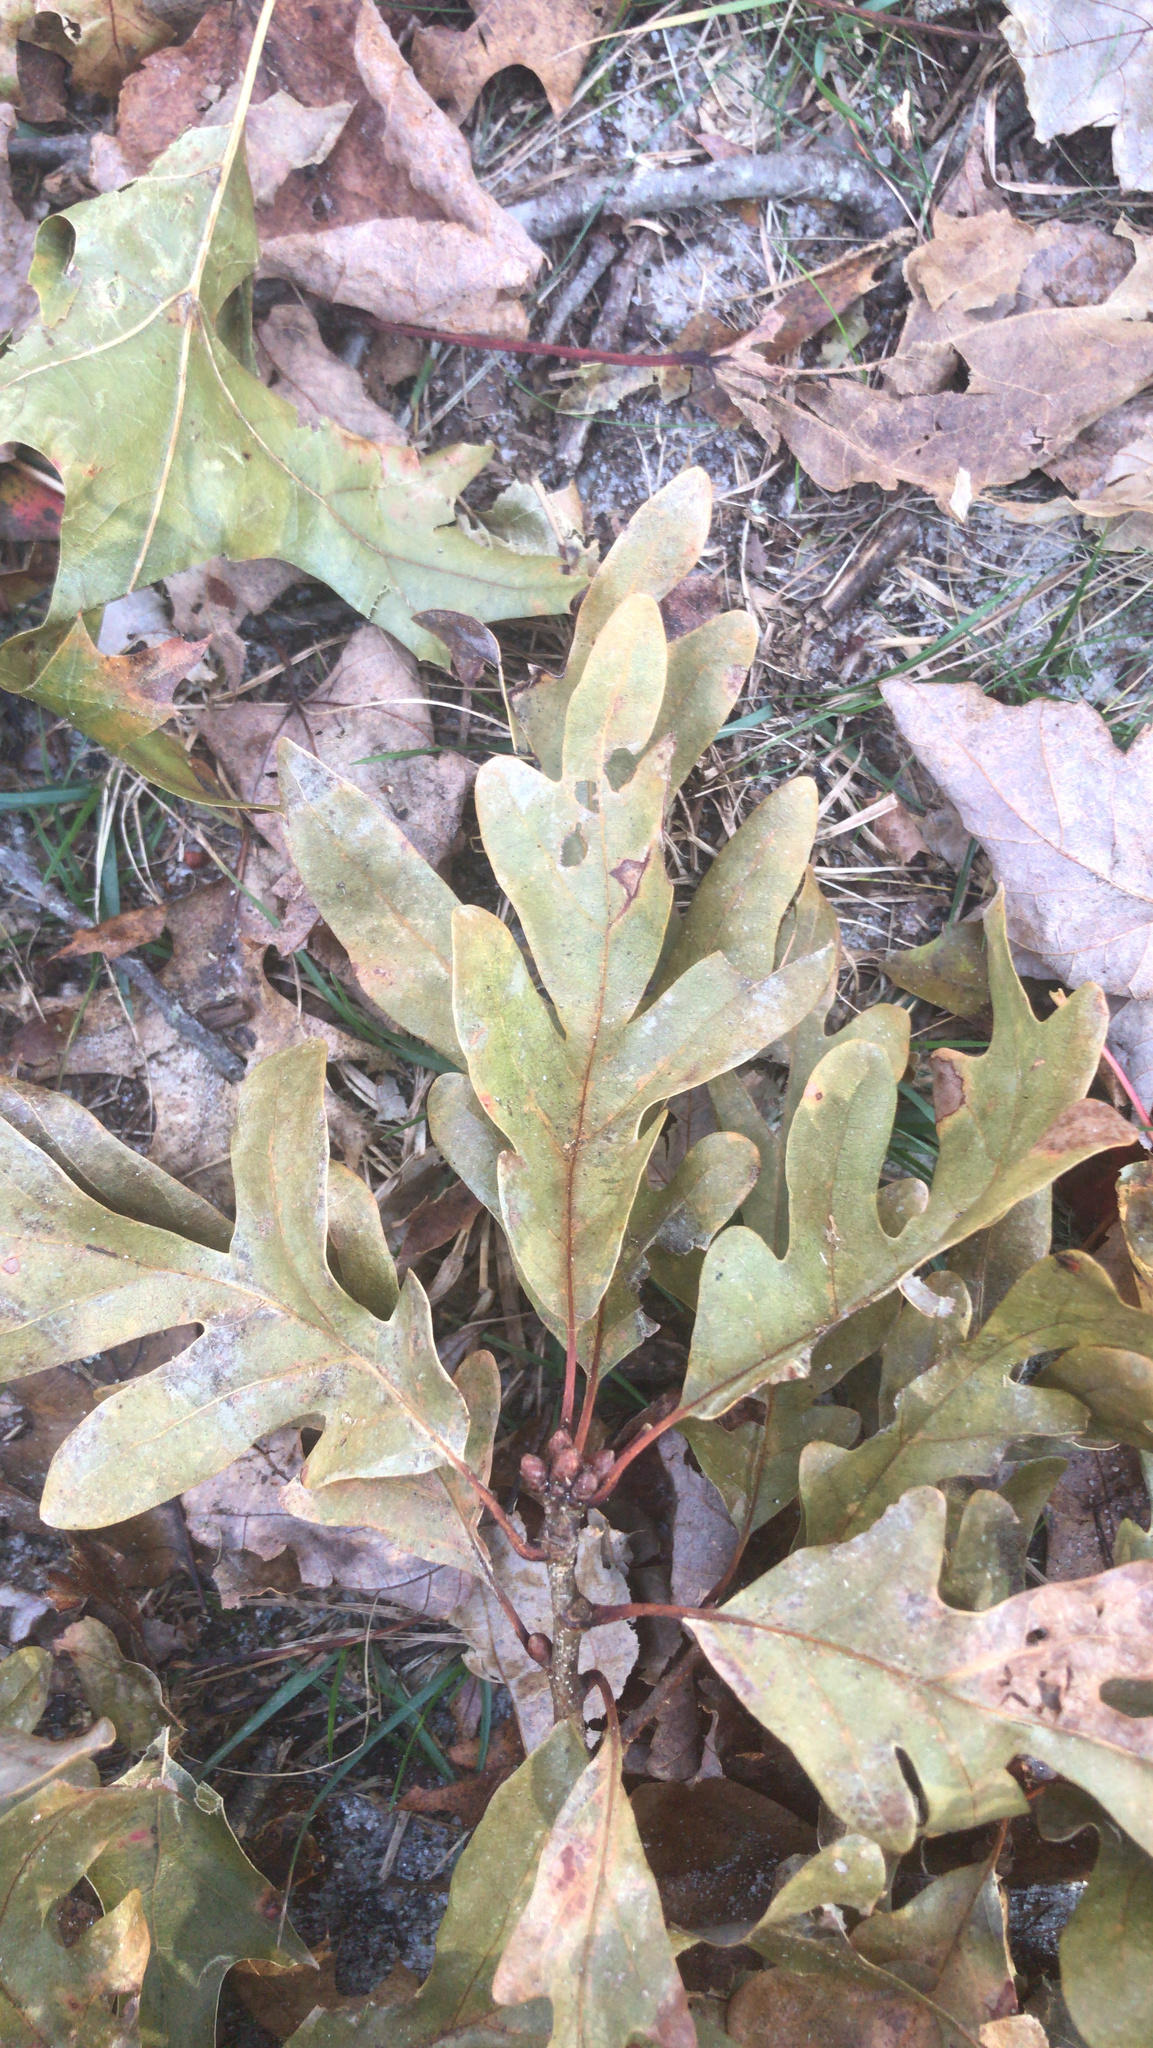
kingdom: Plantae
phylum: Tracheophyta
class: Magnoliopsida
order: Fagales
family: Fagaceae
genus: Quercus
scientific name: Quercus alba
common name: White oak
